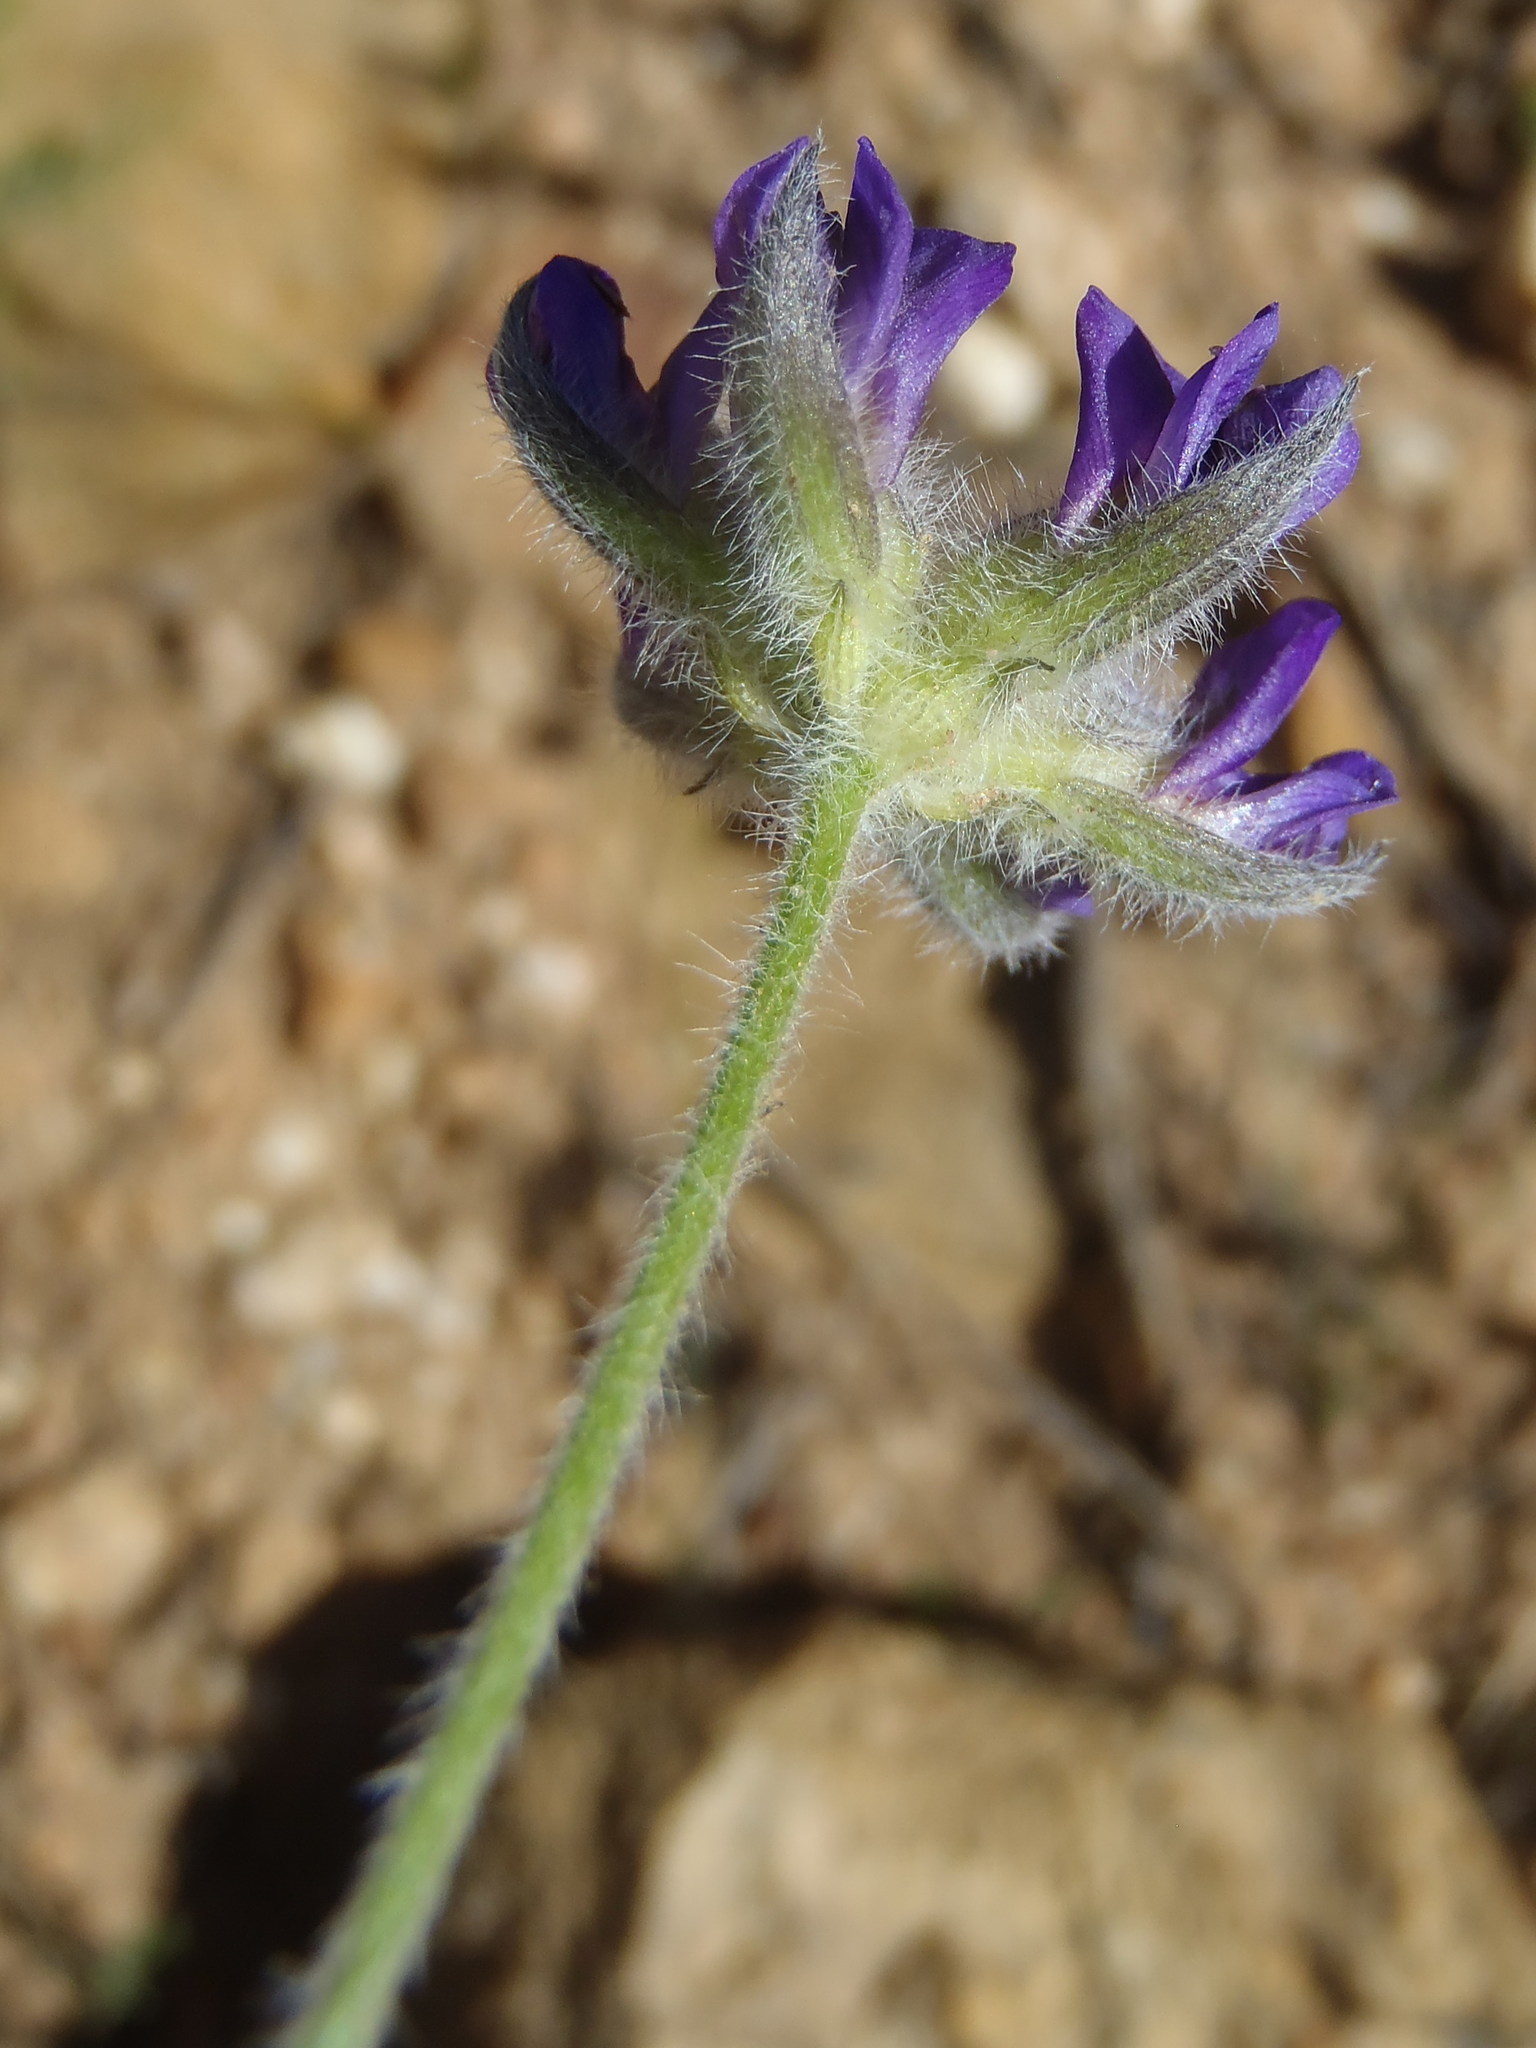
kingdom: Plantae
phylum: Tracheophyta
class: Magnoliopsida
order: Fabales
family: Fabaceae
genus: Psoralea
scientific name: Psoralea swartbergensis
